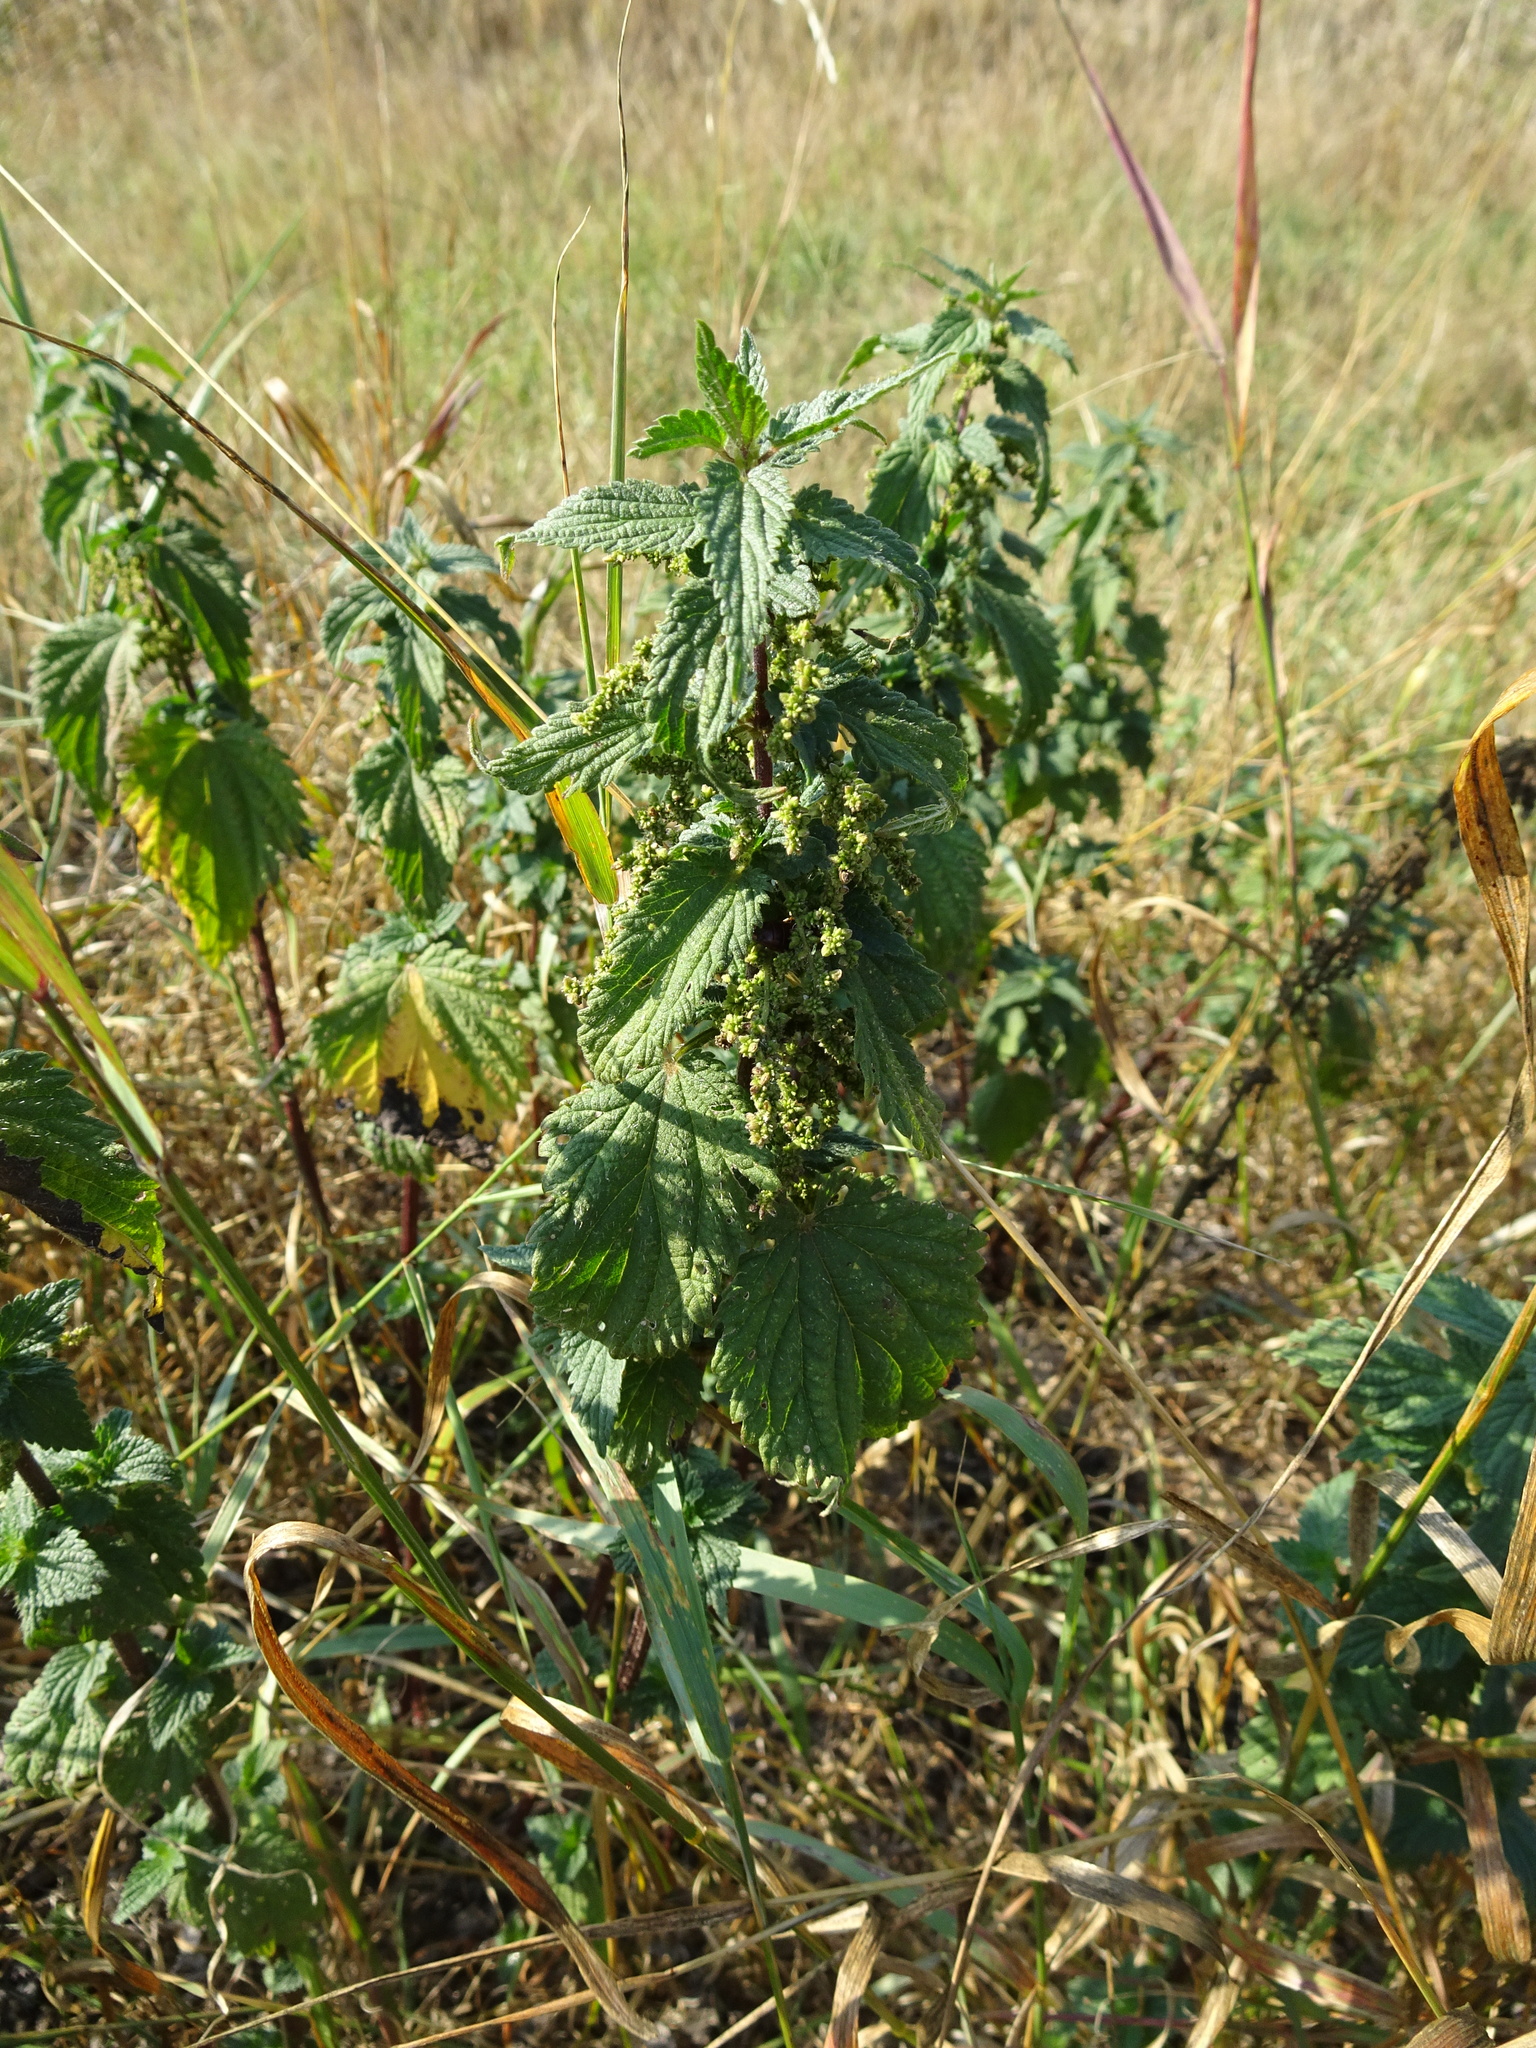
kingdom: Plantae
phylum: Tracheophyta
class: Magnoliopsida
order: Rosales
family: Urticaceae
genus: Urtica
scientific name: Urtica dioica
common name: Common nettle
